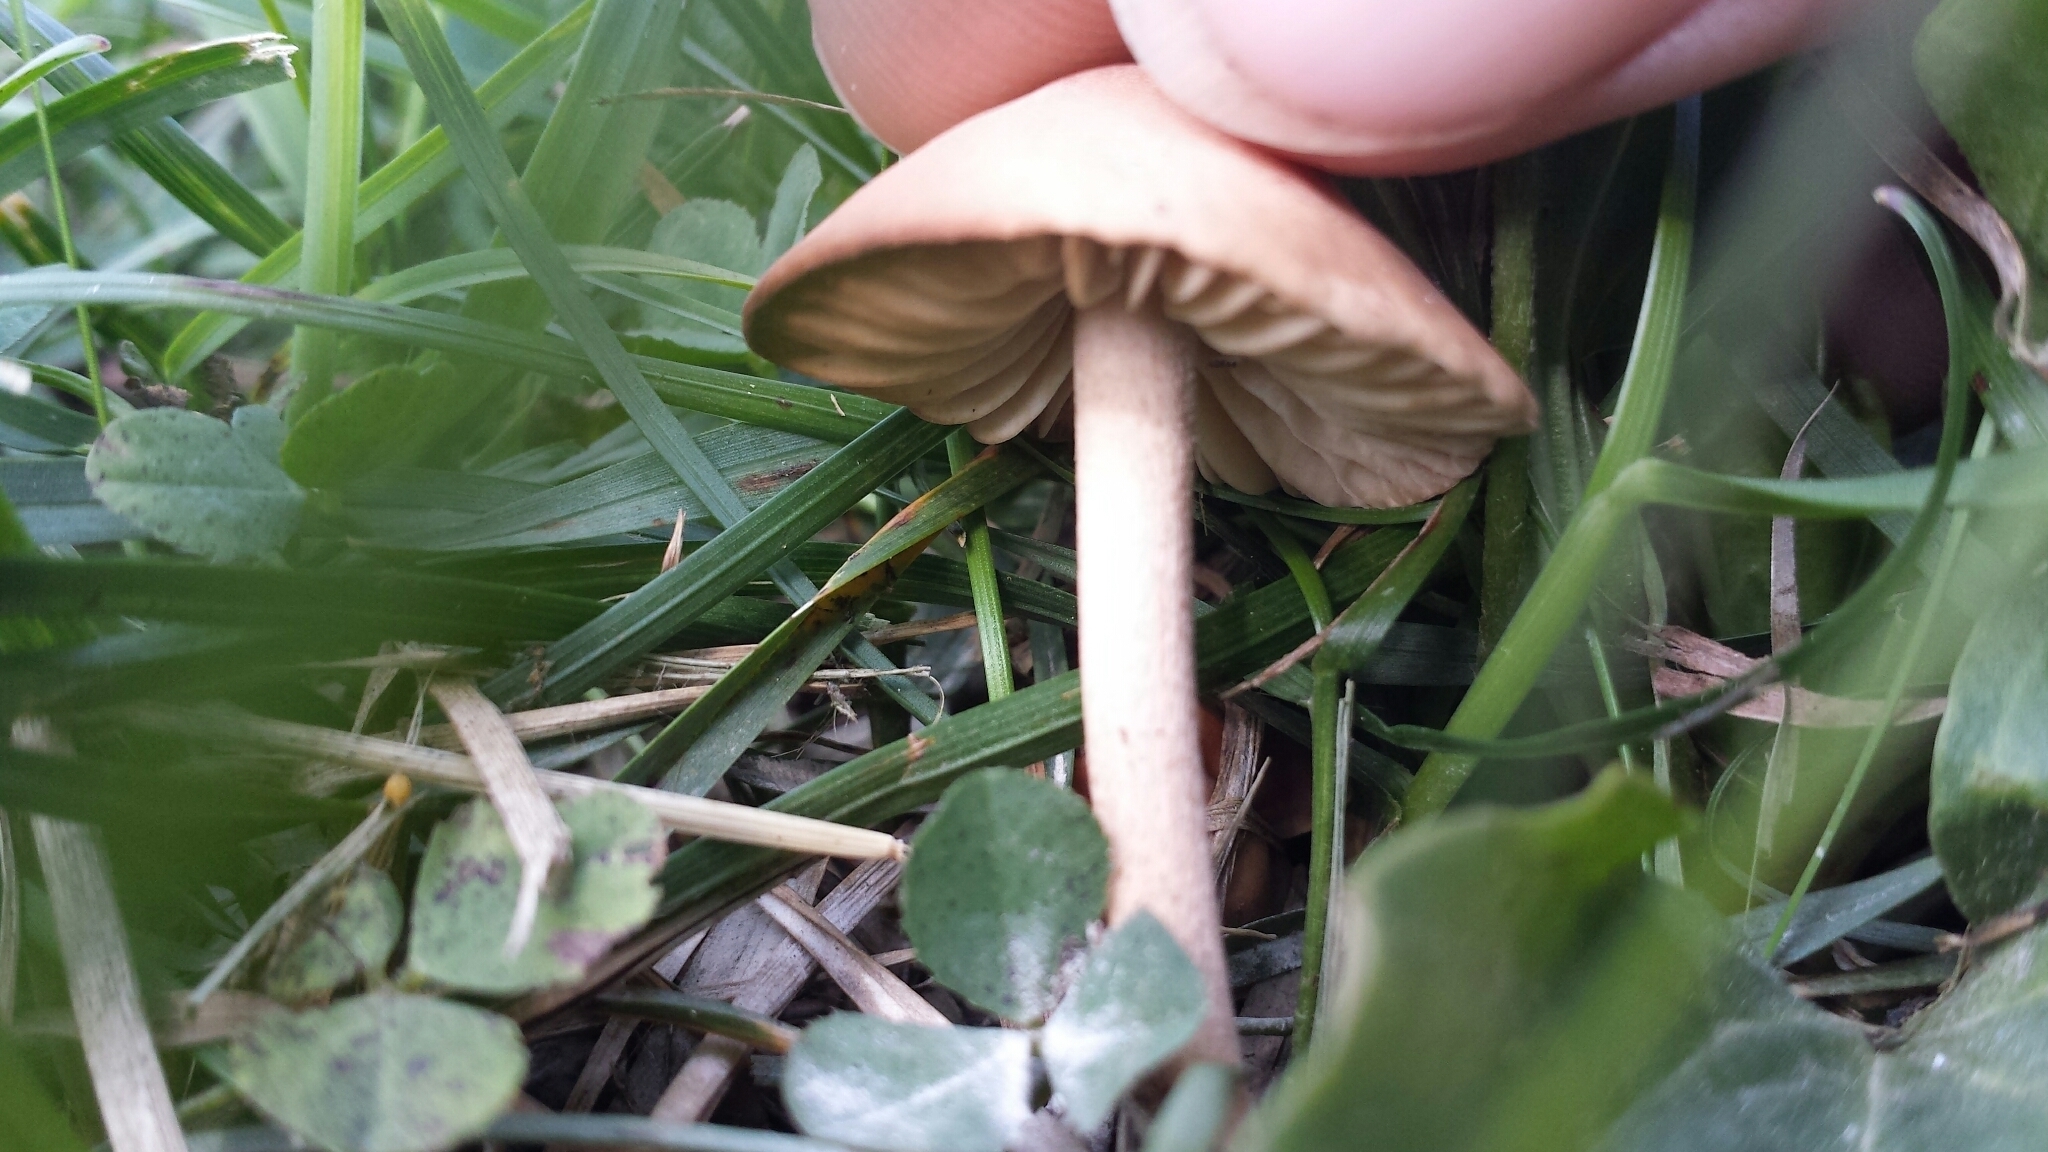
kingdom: Fungi
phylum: Basidiomycota
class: Agaricomycetes
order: Agaricales
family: Marasmiaceae
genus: Marasmius
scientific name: Marasmius oreades
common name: Fairy ring champignon
